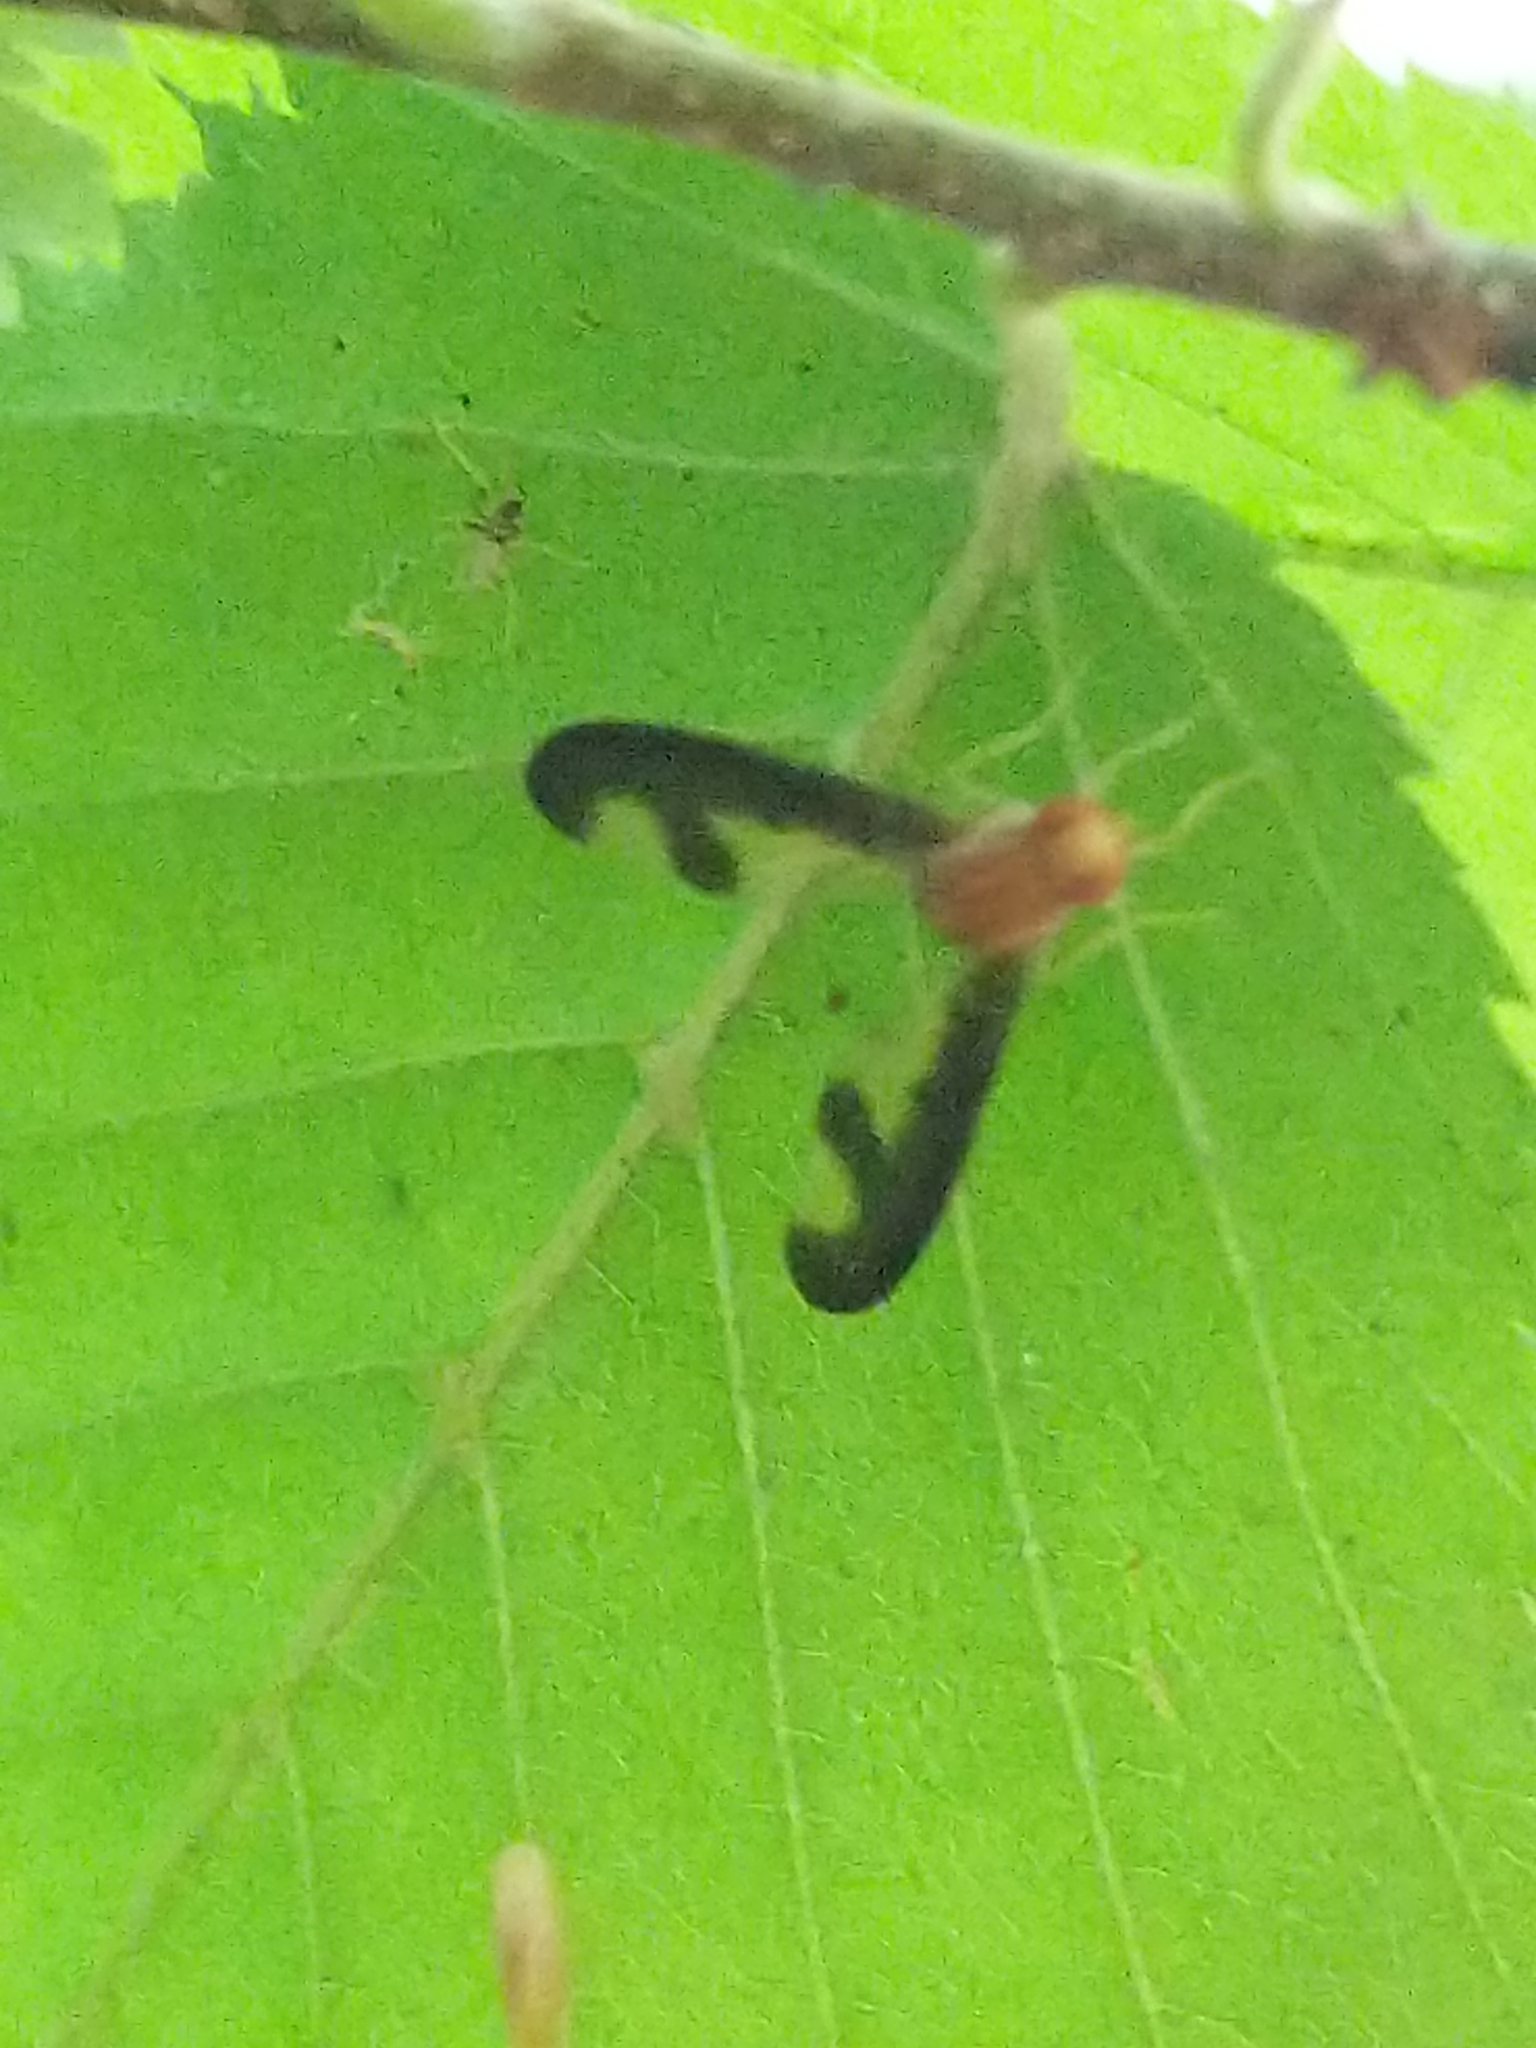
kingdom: Animalia
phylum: Arthropoda
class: Insecta
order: Diptera
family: Pallopteridae
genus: Toxonevra
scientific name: Toxonevra superba
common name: Antlered flutter fly
